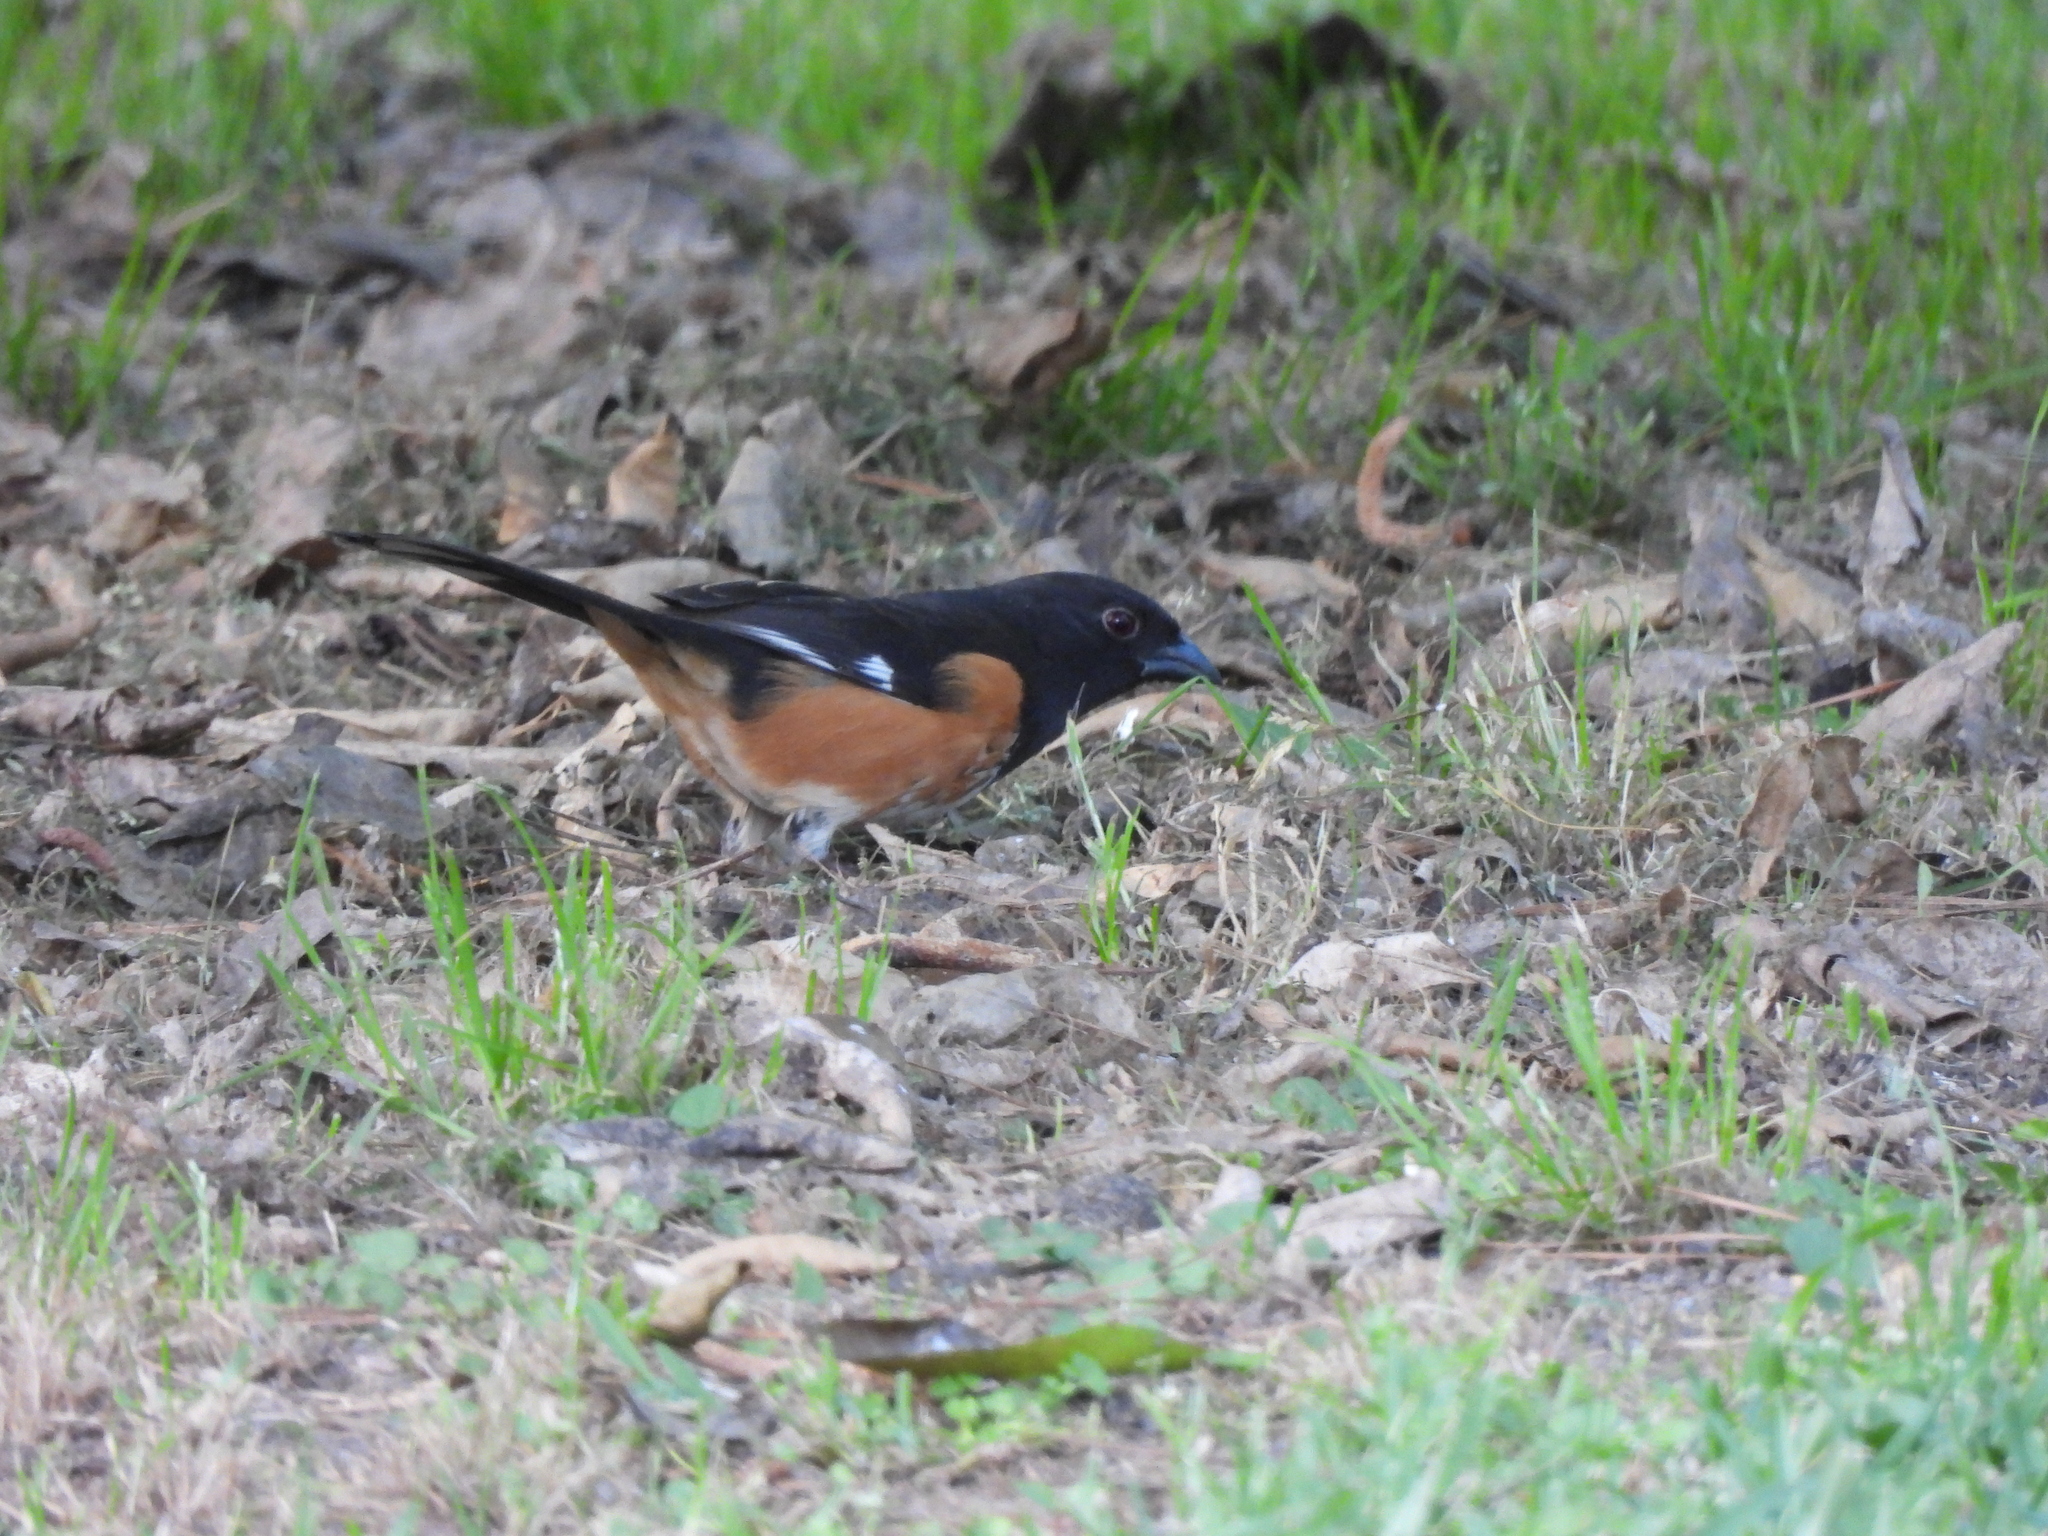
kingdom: Animalia
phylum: Chordata
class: Aves
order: Passeriformes
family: Passerellidae
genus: Pipilo
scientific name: Pipilo erythrophthalmus
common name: Eastern towhee
